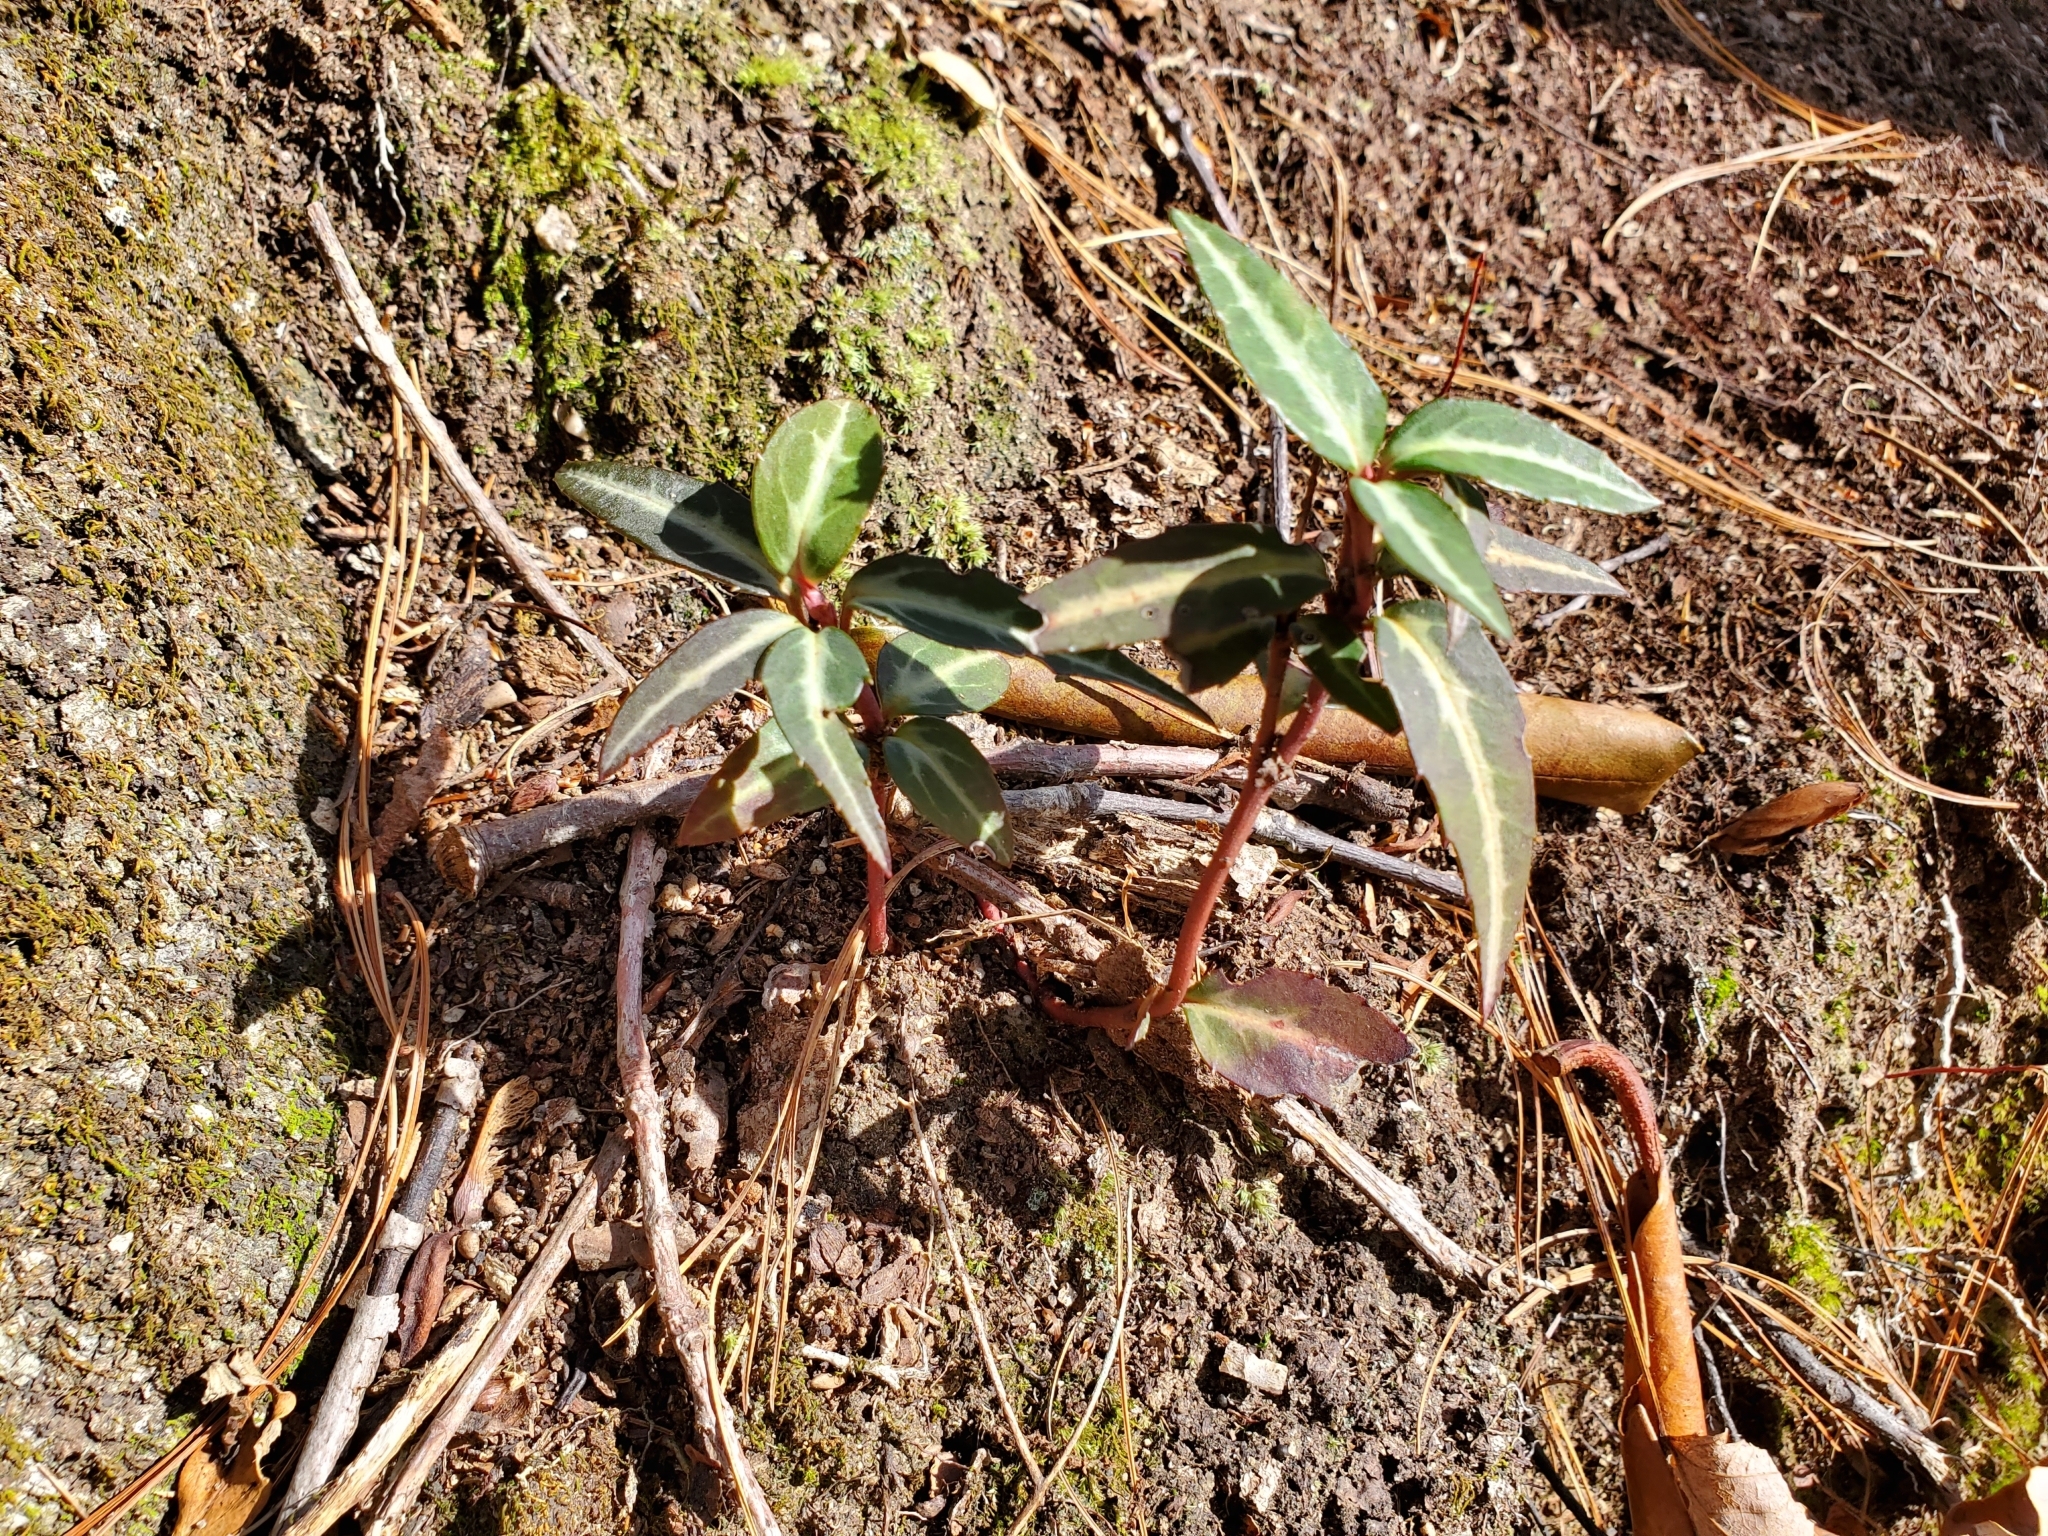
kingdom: Plantae
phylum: Tracheophyta
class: Magnoliopsida
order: Ericales
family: Ericaceae
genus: Chimaphila
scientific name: Chimaphila maculata
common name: Spotted pipsissewa
